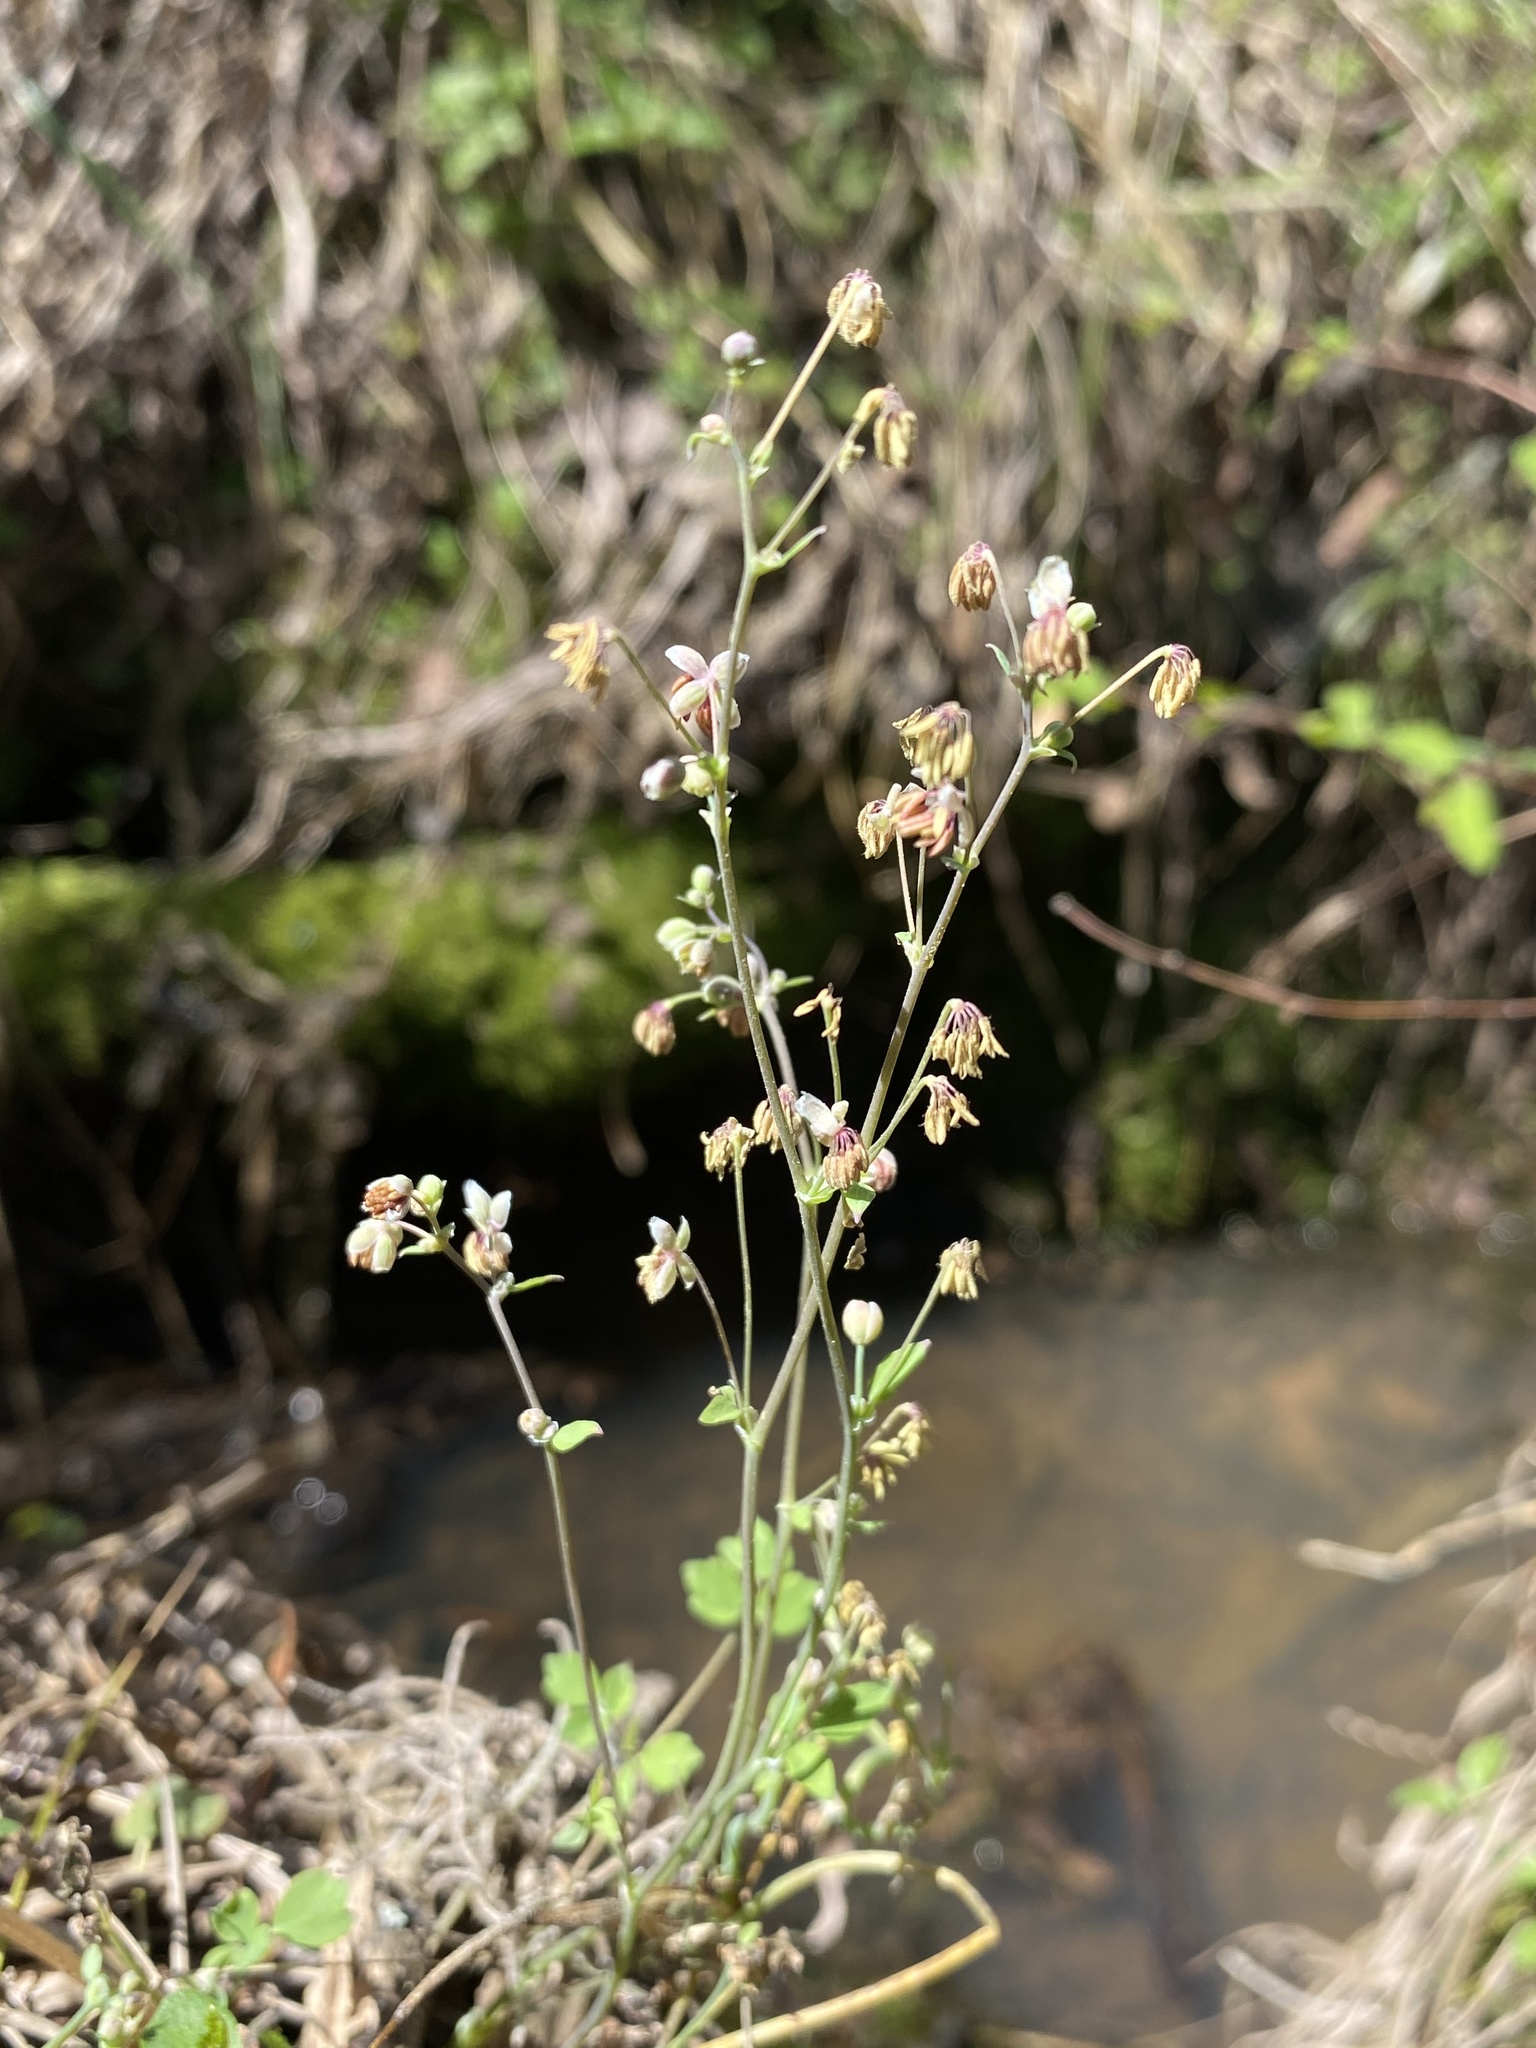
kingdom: Plantae
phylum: Tracheophyta
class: Magnoliopsida
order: Ranunculales
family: Ranunculaceae
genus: Thalictrum
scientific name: Thalictrum texanum
